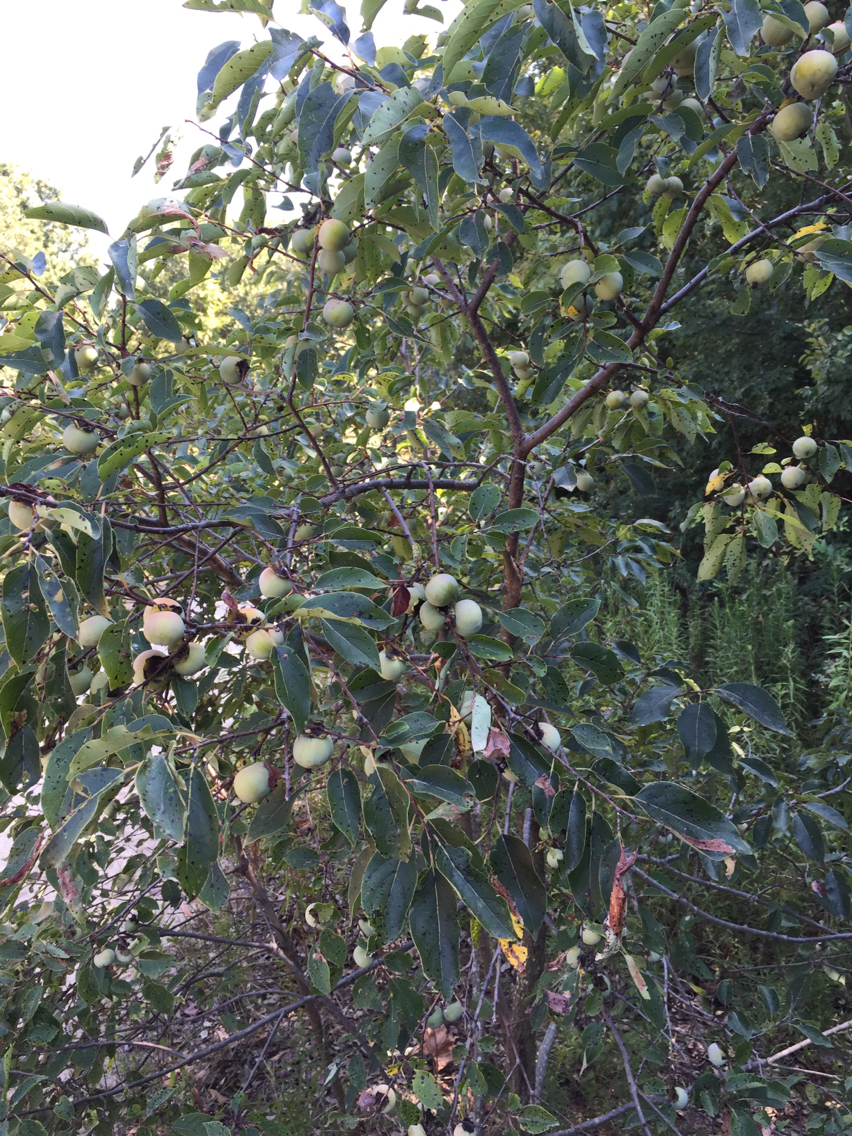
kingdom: Plantae
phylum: Tracheophyta
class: Magnoliopsida
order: Ericales
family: Ebenaceae
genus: Diospyros
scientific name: Diospyros virginiana
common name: Persimmon
